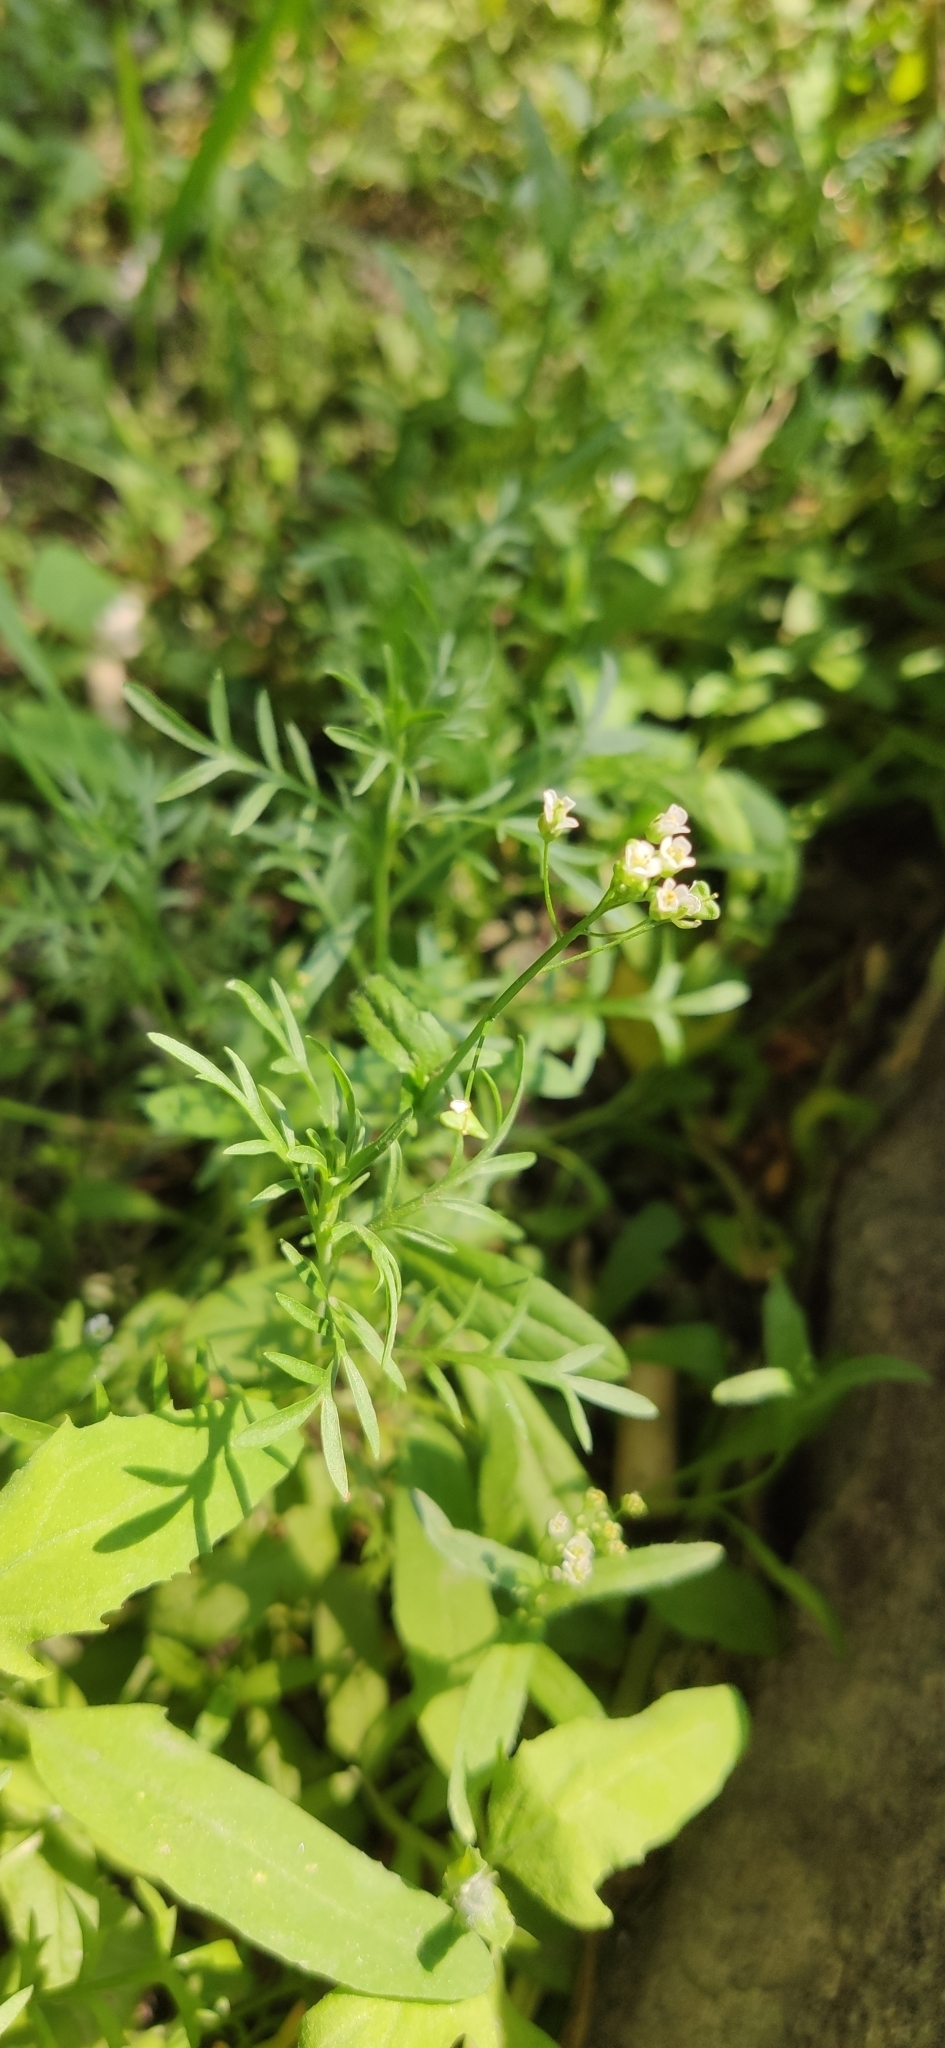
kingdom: Plantae
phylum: Tracheophyta
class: Magnoliopsida
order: Brassicales
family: Brassicaceae
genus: Capsella
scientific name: Capsella bursa-pastoris
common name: Shepherd's purse
